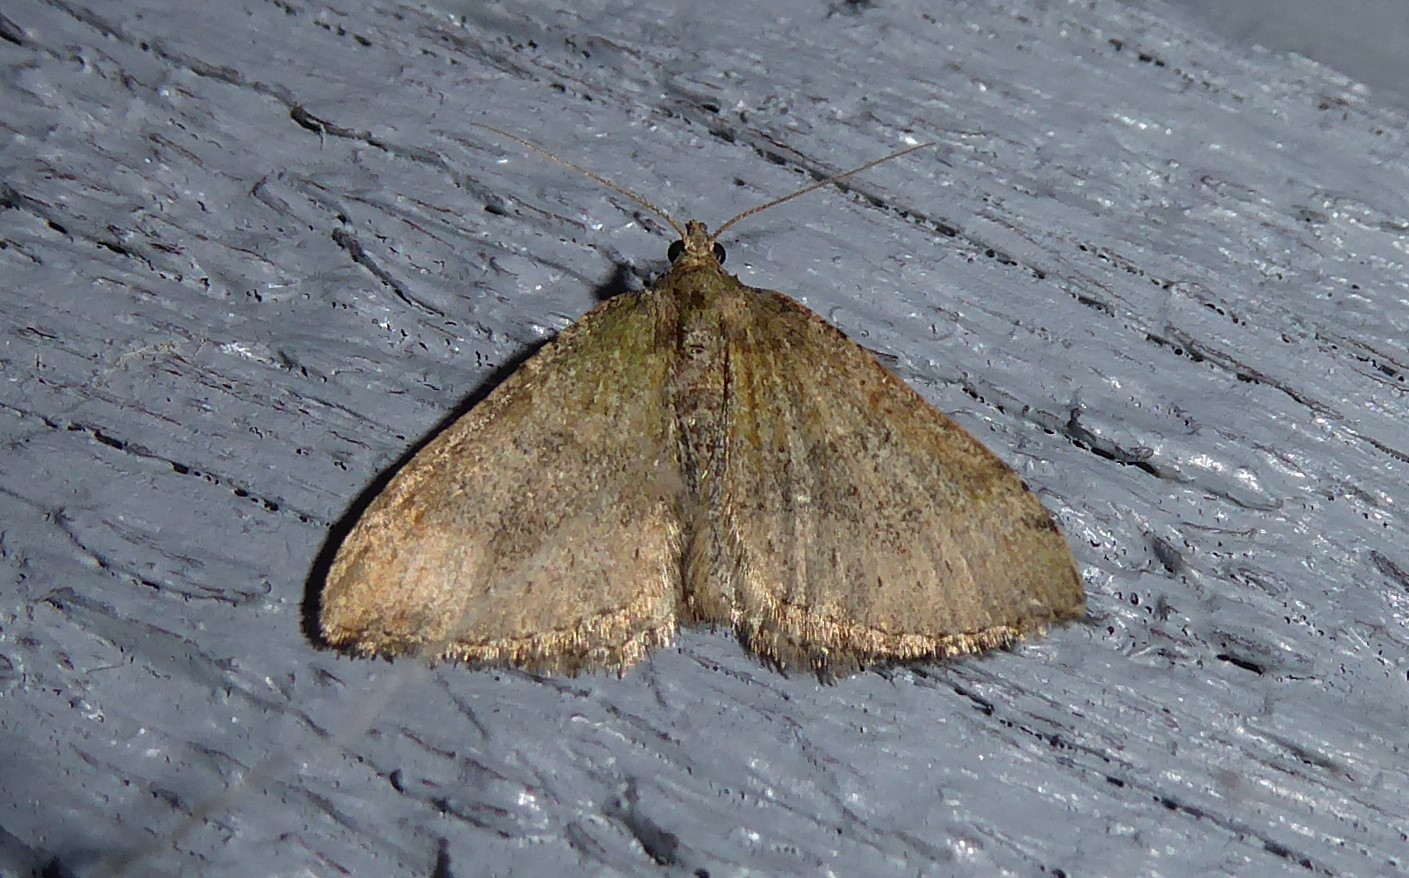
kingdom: Animalia
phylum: Arthropoda
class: Insecta
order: Lepidoptera
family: Geometridae
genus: Epyaxa
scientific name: Epyaxa rosearia
